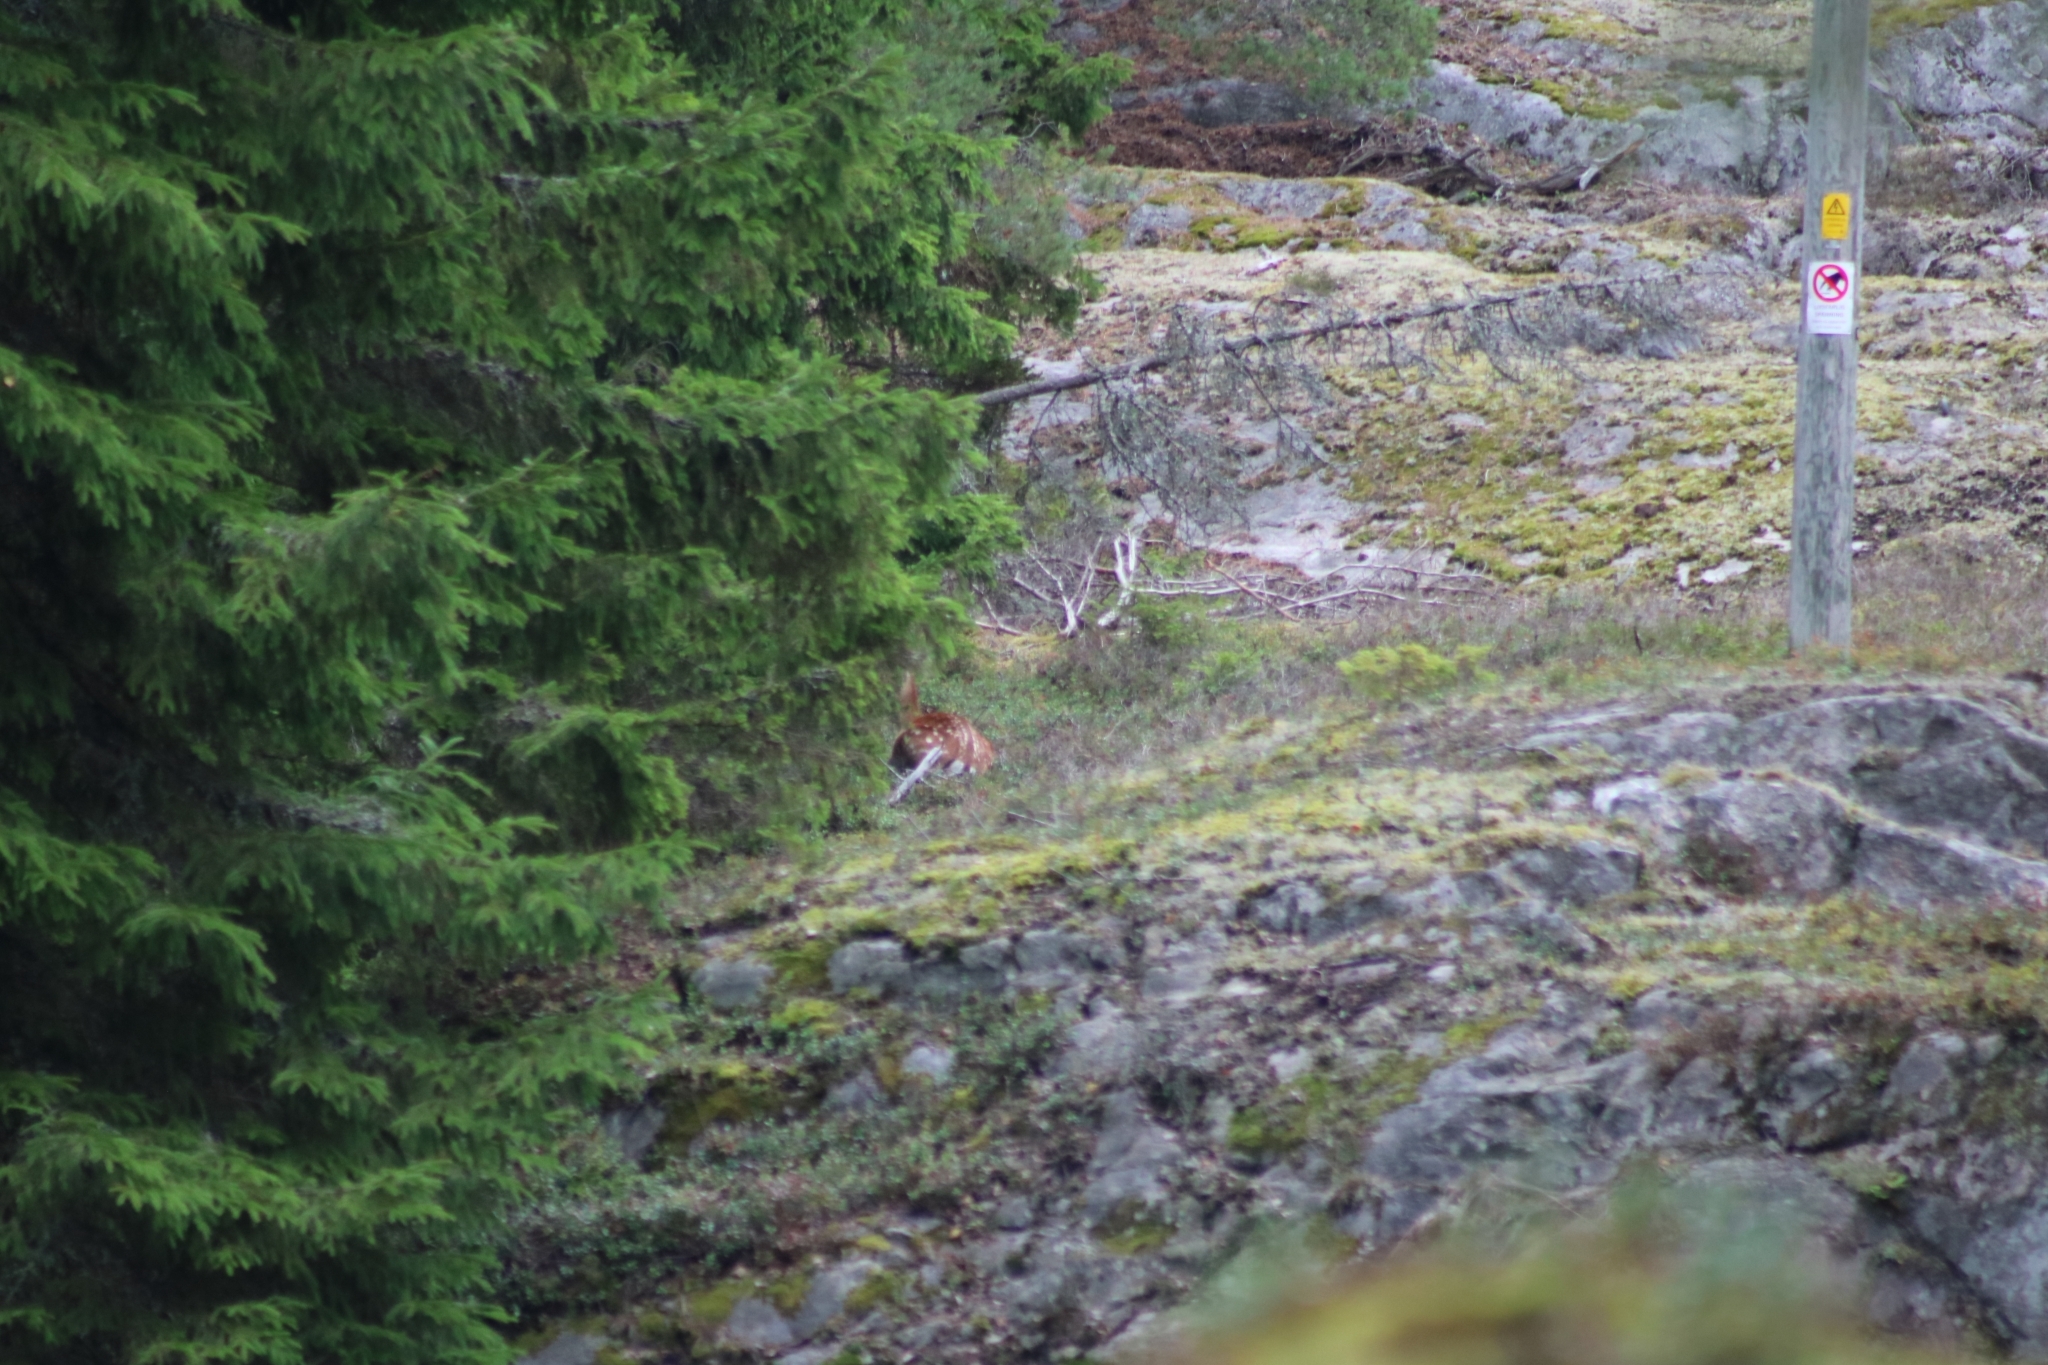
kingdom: Animalia
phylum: Chordata
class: Mammalia
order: Artiodactyla
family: Cervidae
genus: Dama
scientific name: Dama dama
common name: Fallow deer
